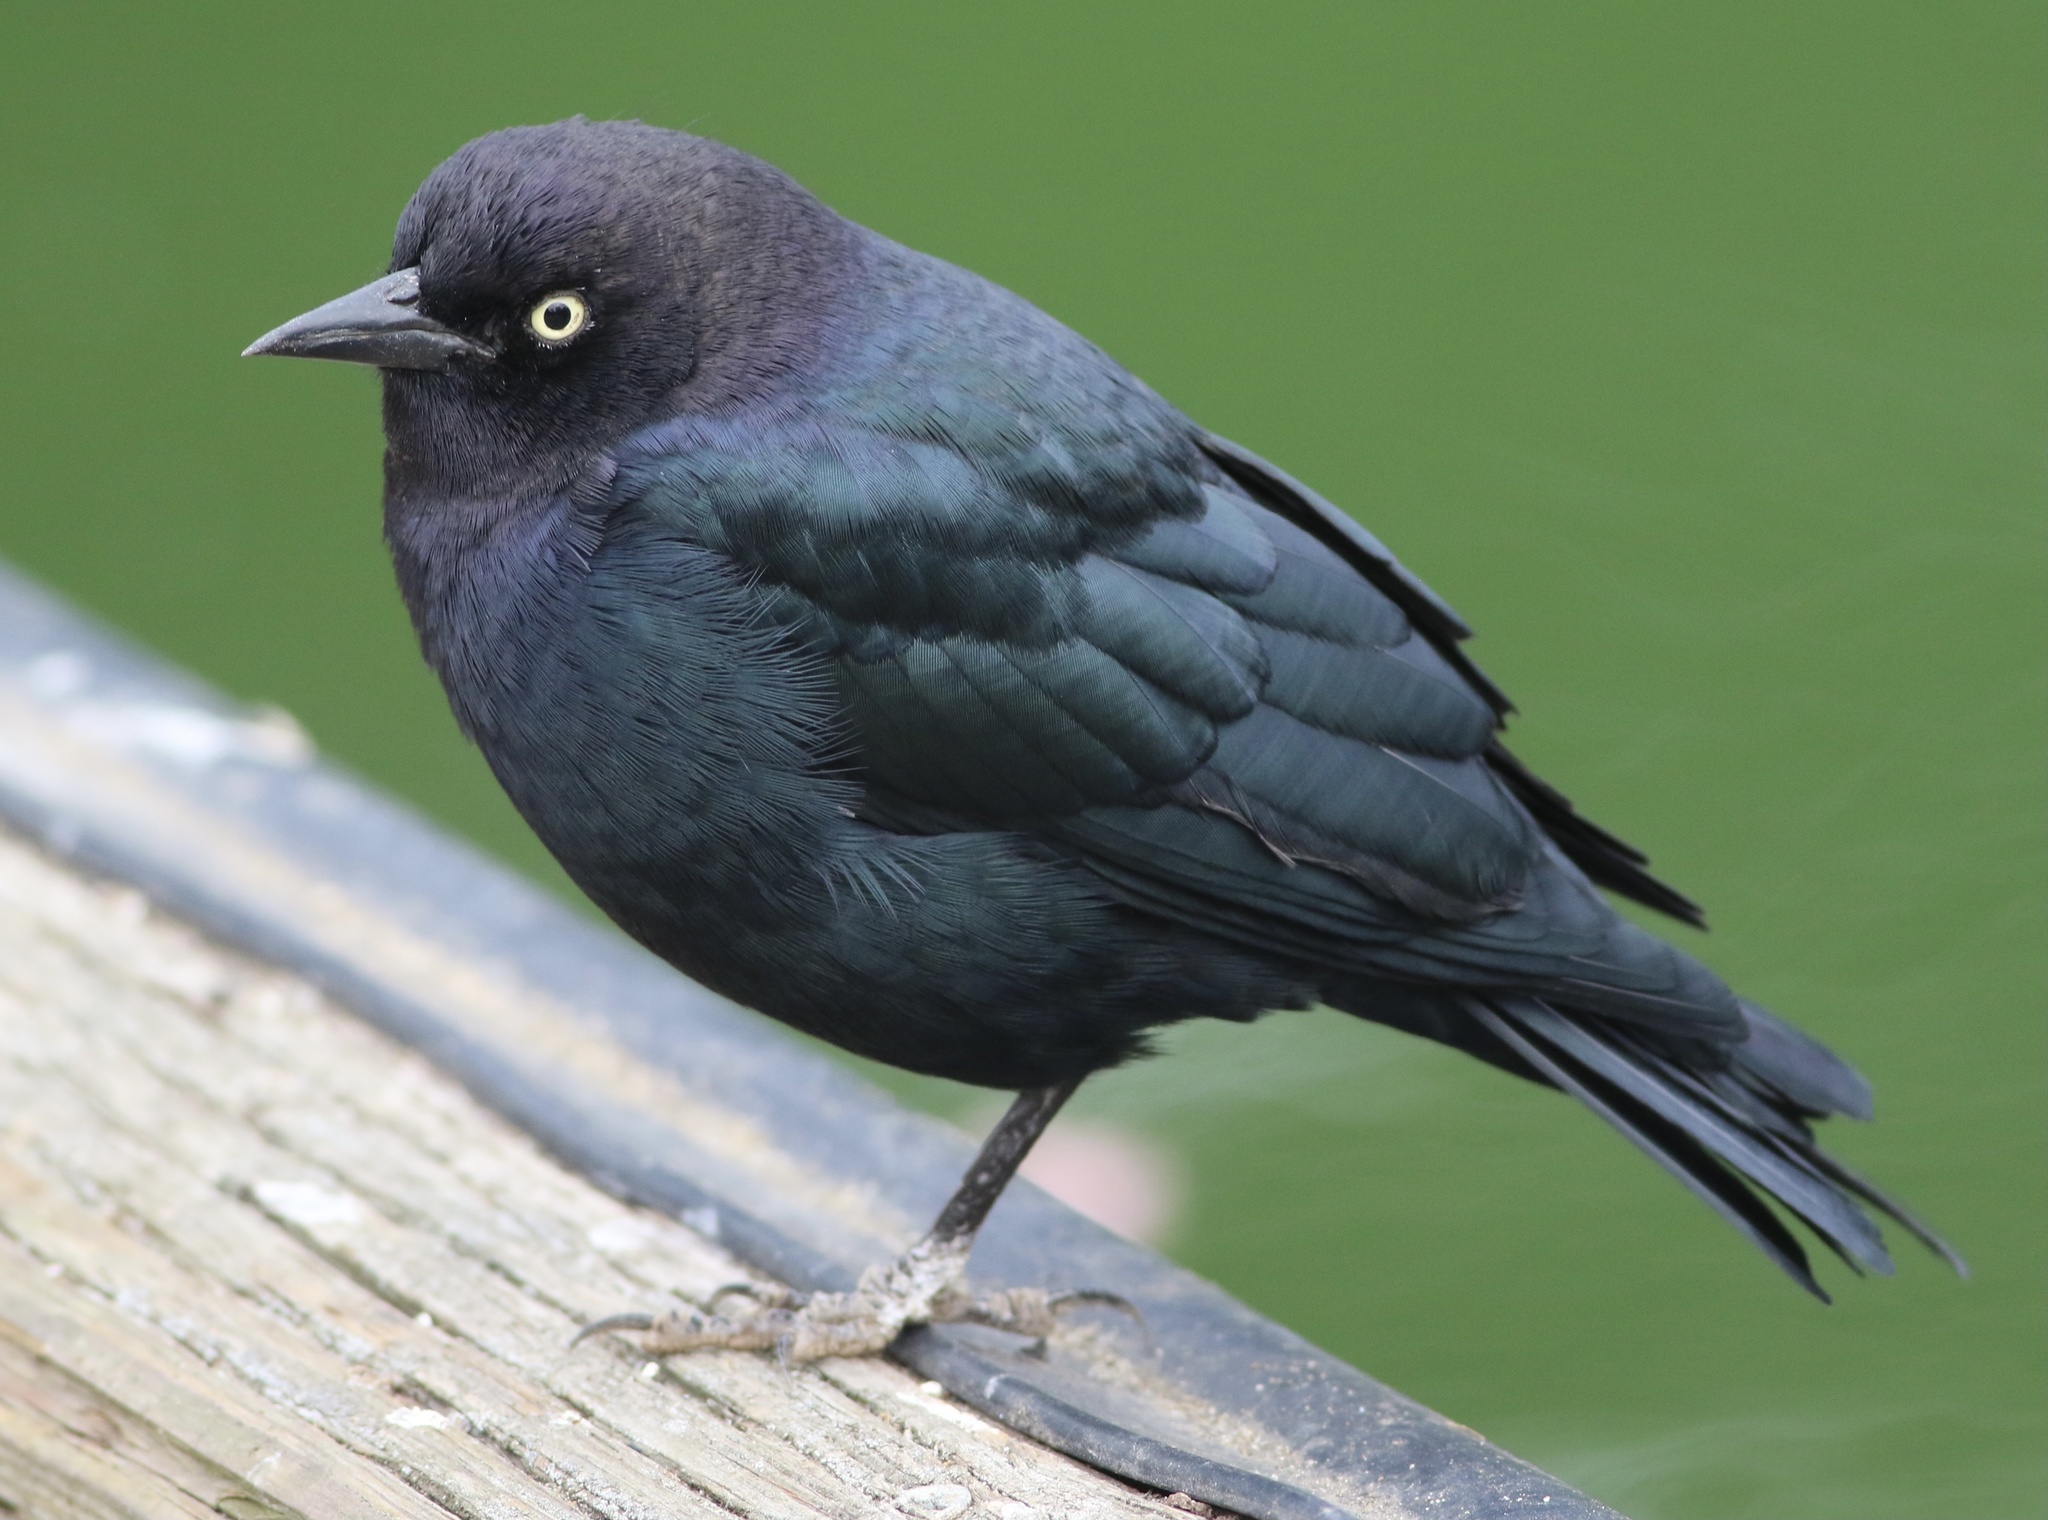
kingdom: Animalia
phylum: Chordata
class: Aves
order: Passeriformes
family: Icteridae
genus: Euphagus
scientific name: Euphagus cyanocephalus
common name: Brewer's blackbird
